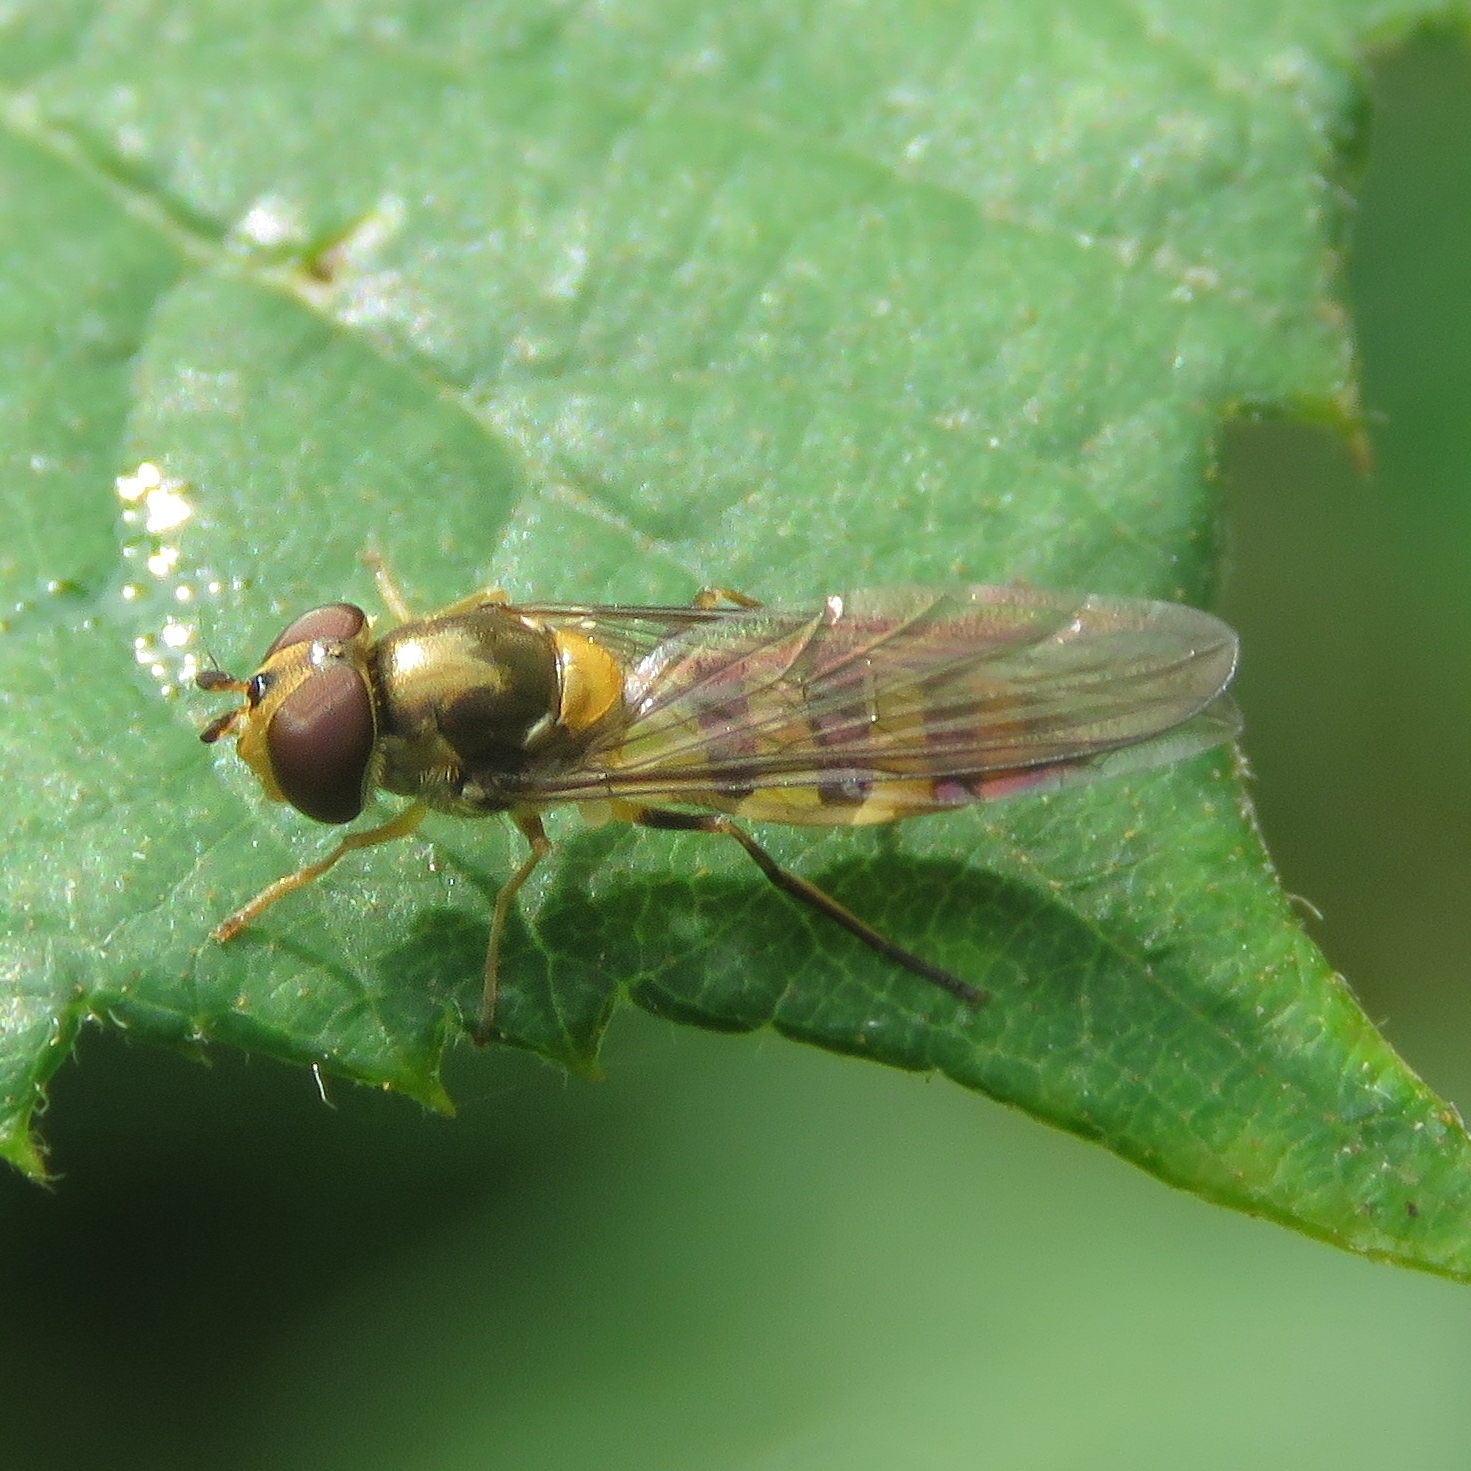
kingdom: Animalia
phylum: Arthropoda
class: Insecta
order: Diptera
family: Syrphidae
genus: Meliscaeva
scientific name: Meliscaeva cinctella
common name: American thintail fly
